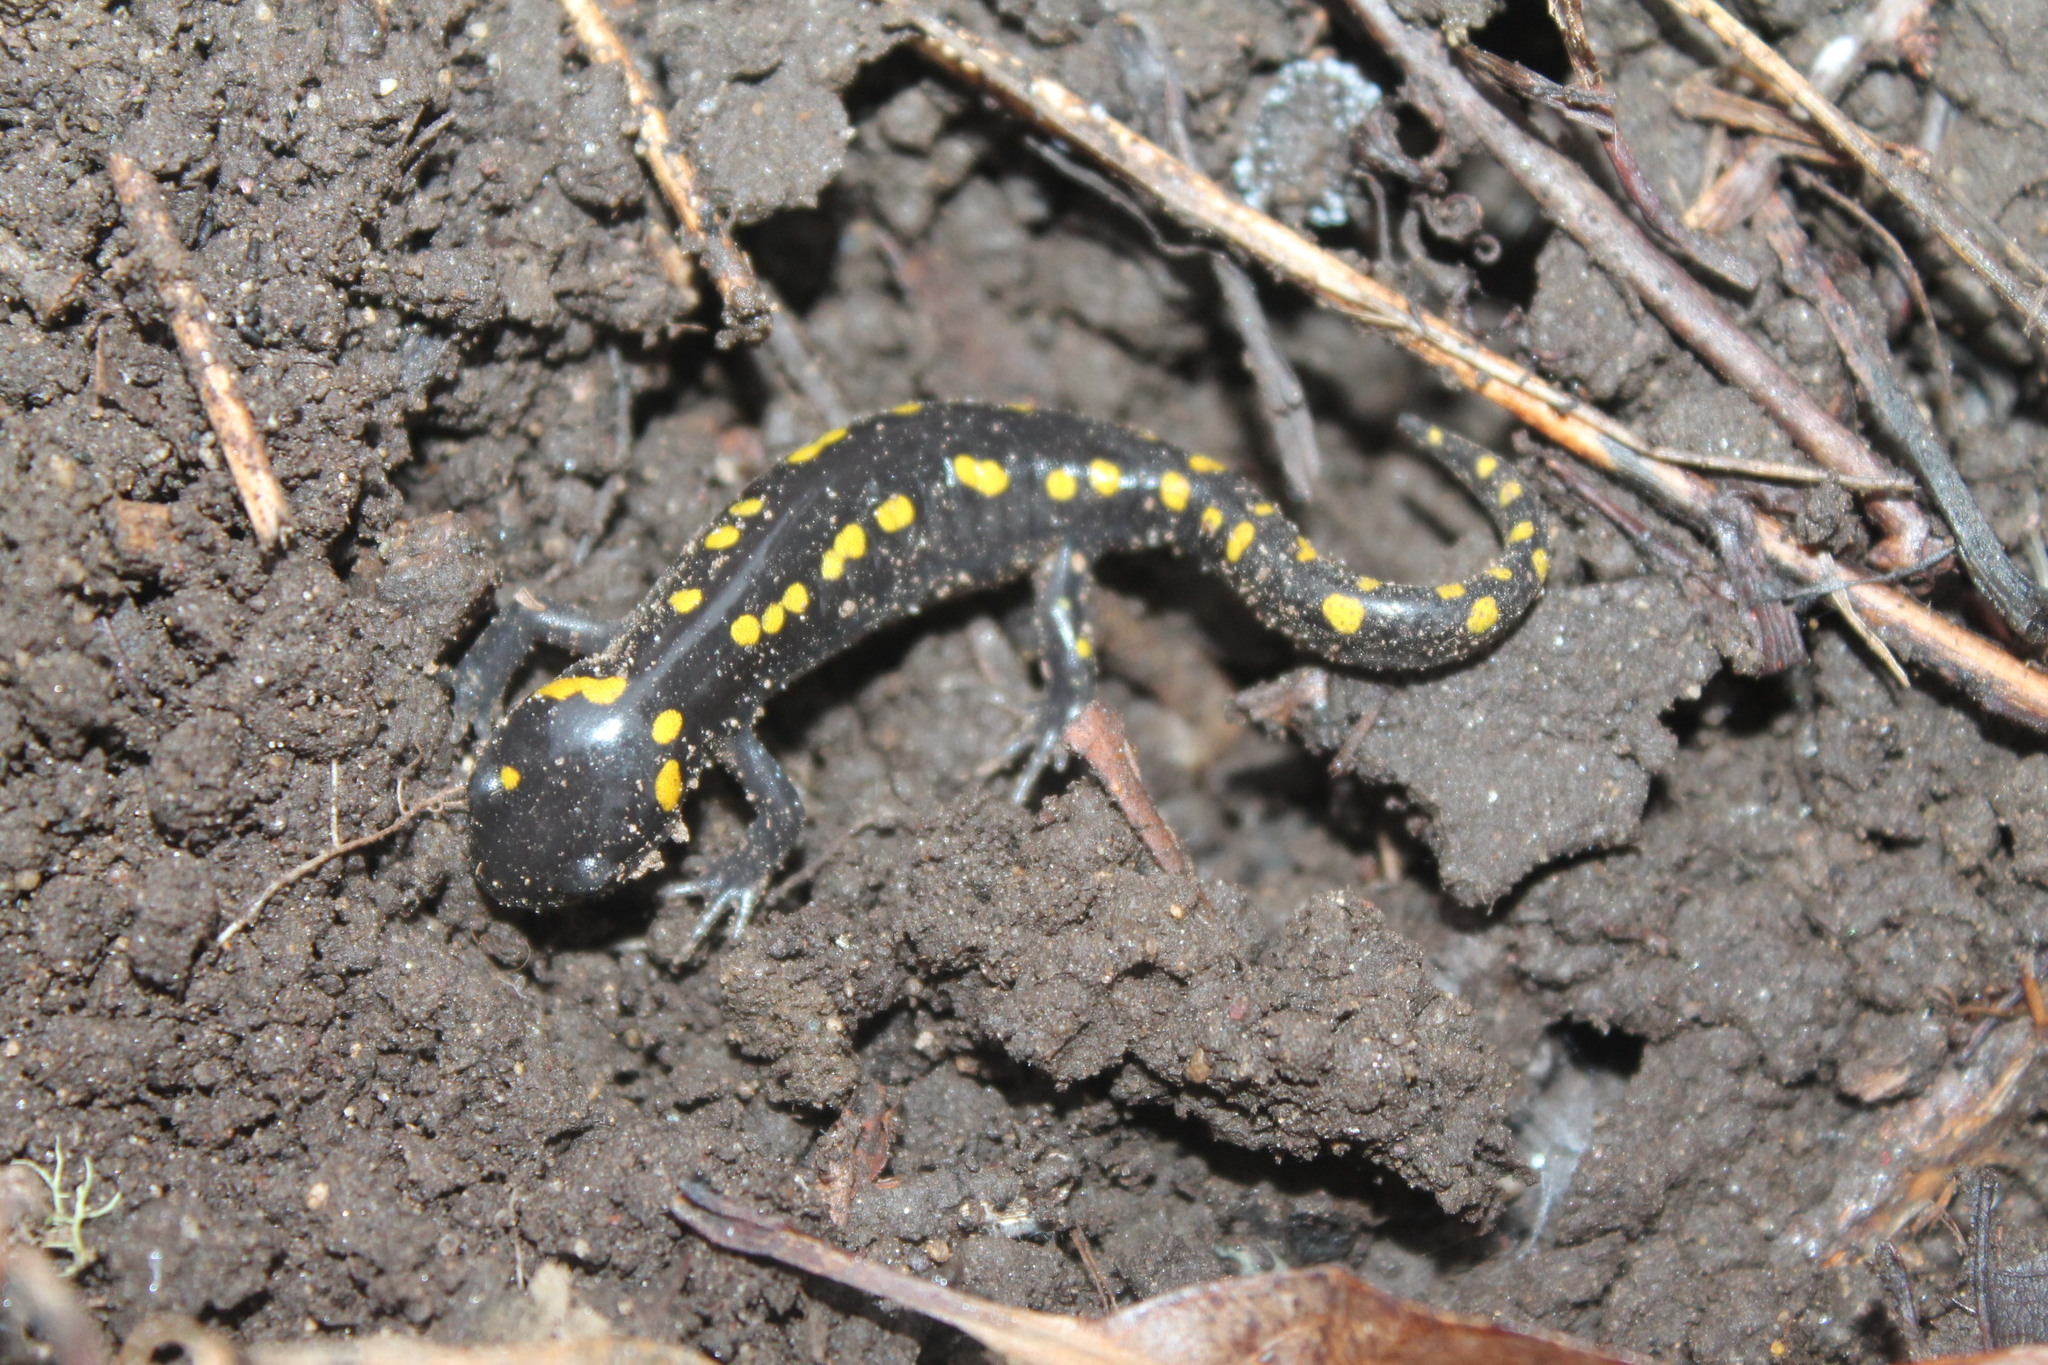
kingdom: Animalia
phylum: Chordata
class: Amphibia
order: Caudata
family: Ambystomatidae
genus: Ambystoma
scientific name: Ambystoma maculatum
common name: Spotted salamander
